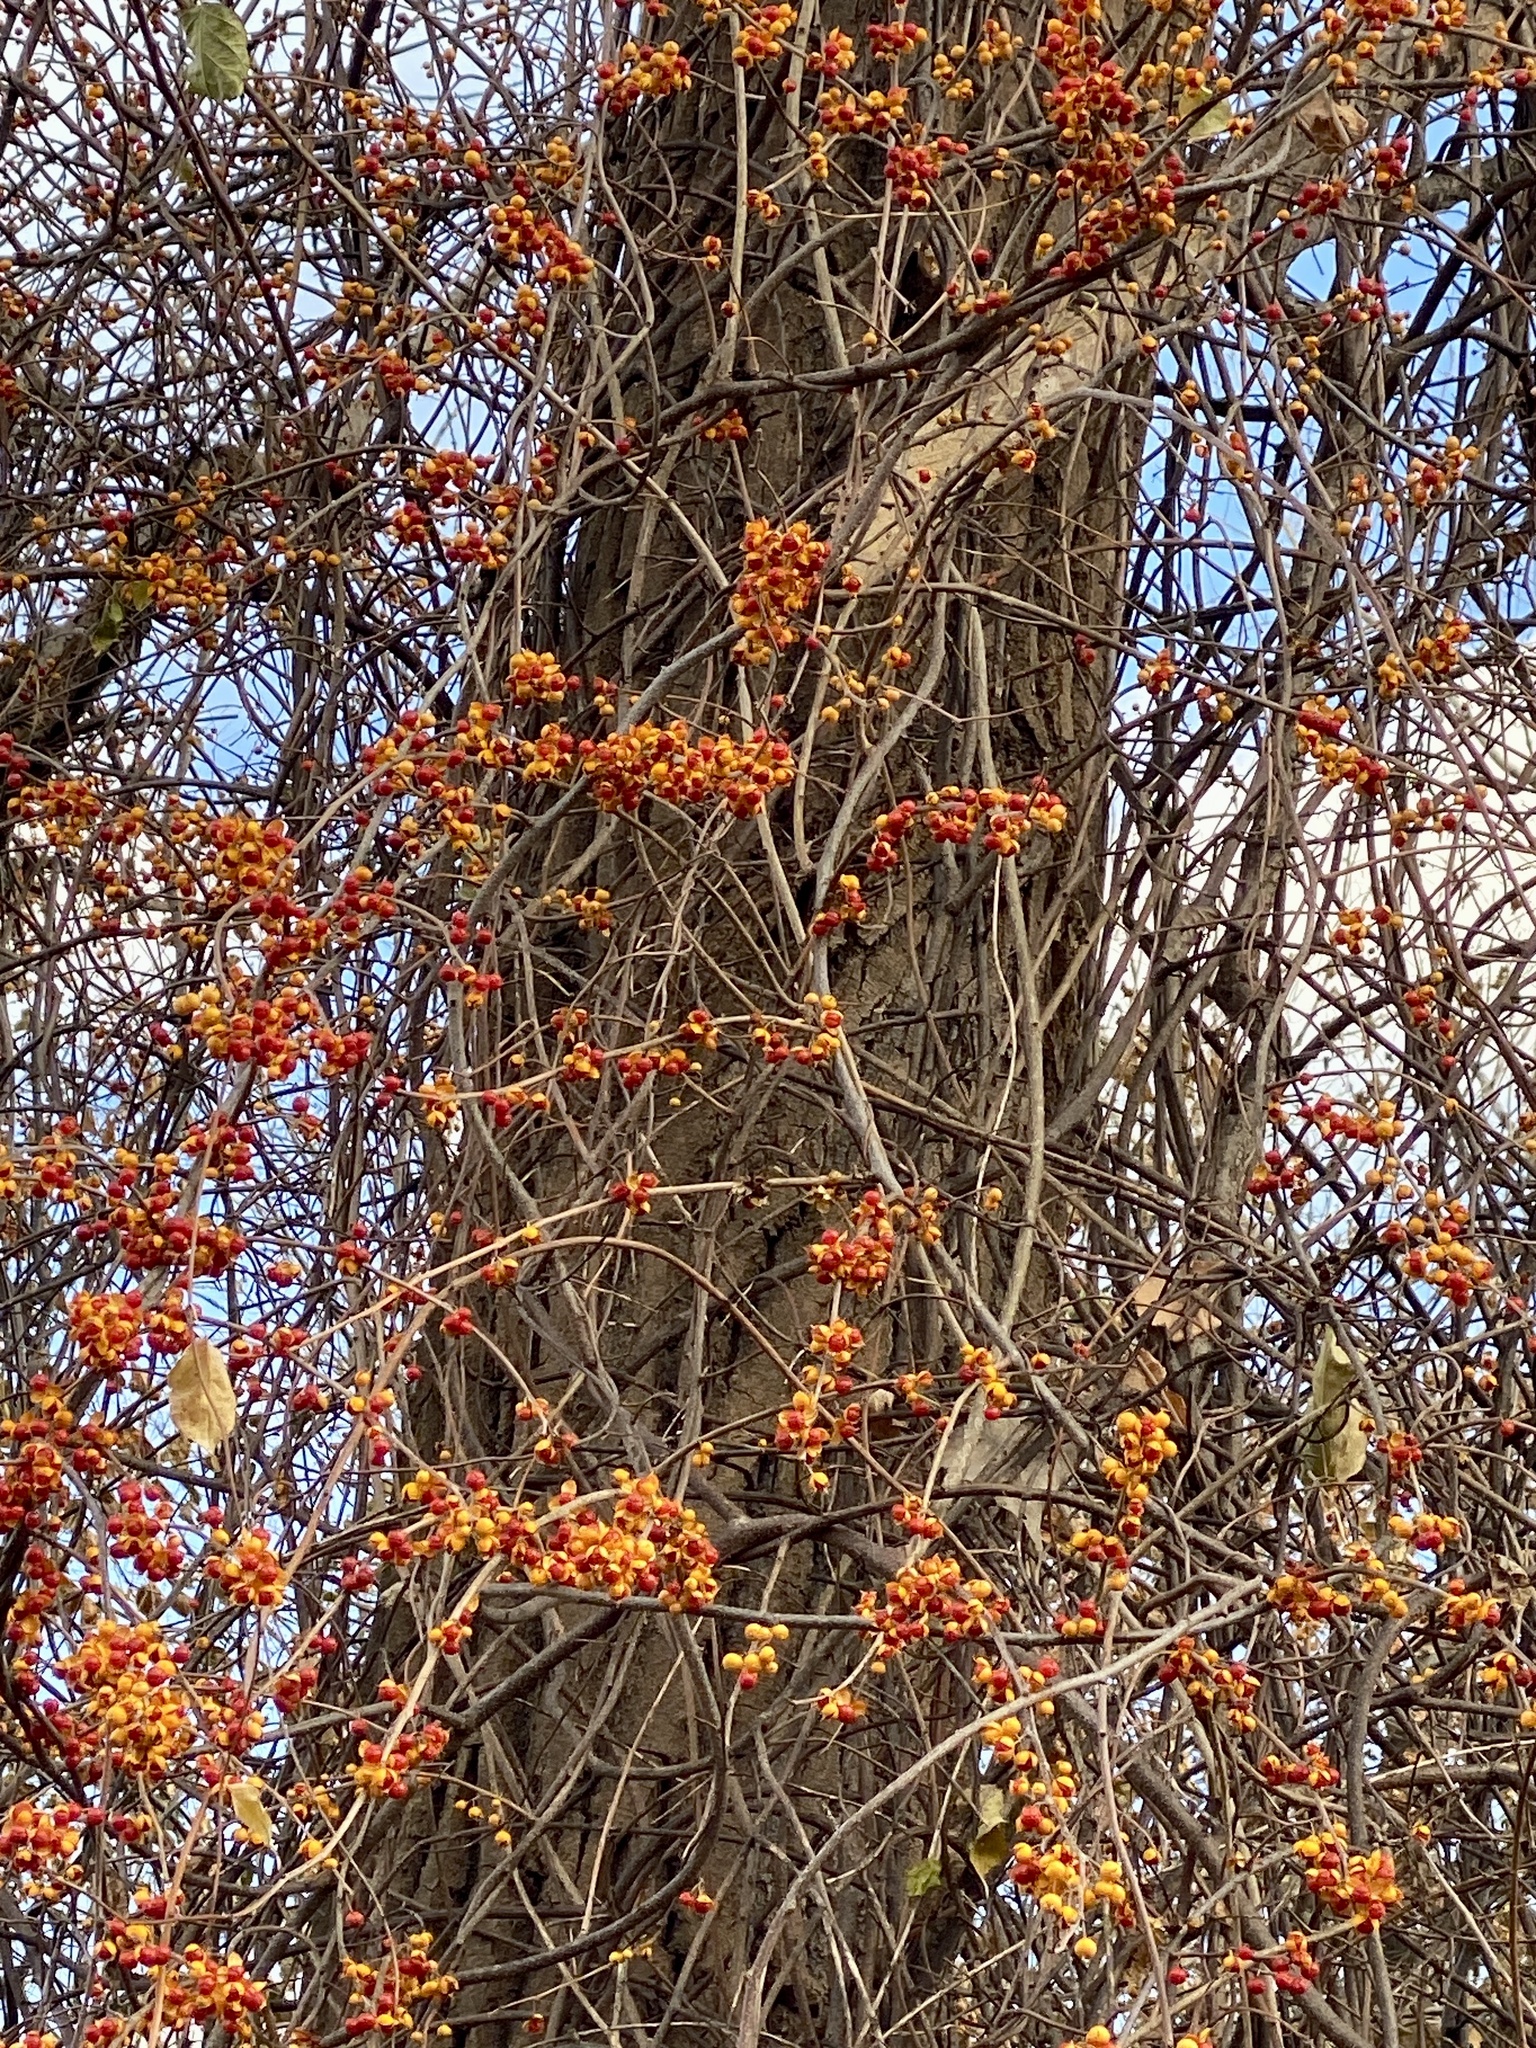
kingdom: Plantae
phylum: Tracheophyta
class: Magnoliopsida
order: Celastrales
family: Celastraceae
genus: Celastrus
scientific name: Celastrus orbiculatus
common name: Oriental bittersweet
